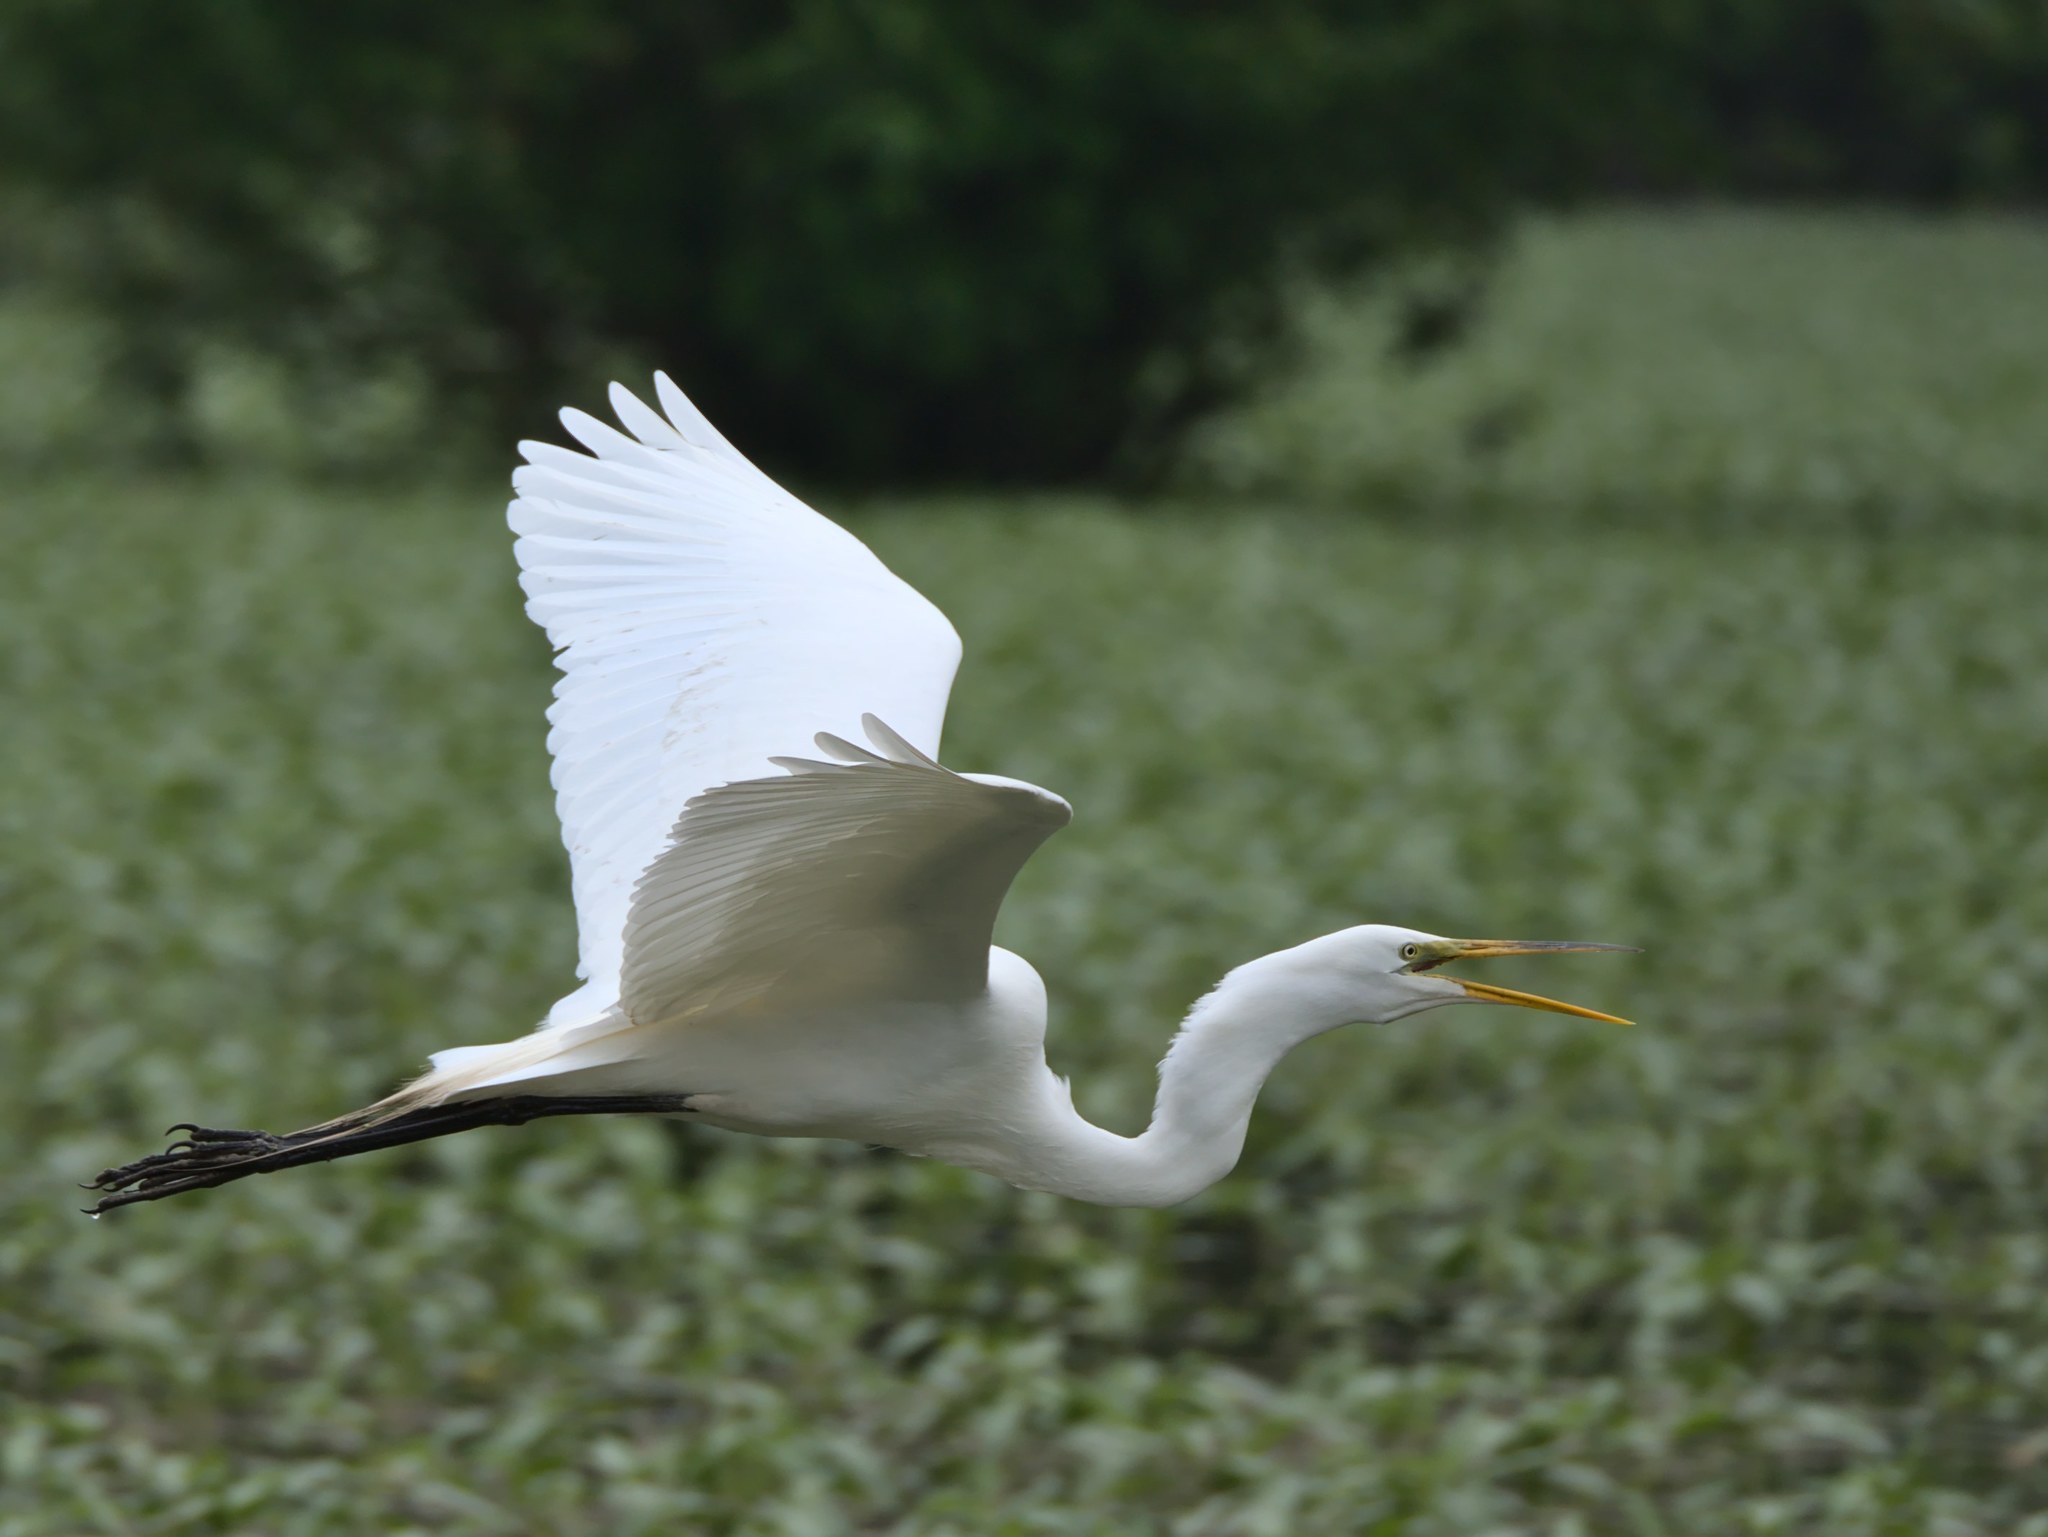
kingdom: Animalia
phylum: Chordata
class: Aves
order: Pelecaniformes
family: Ardeidae
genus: Ardea
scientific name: Ardea alba
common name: Great egret
